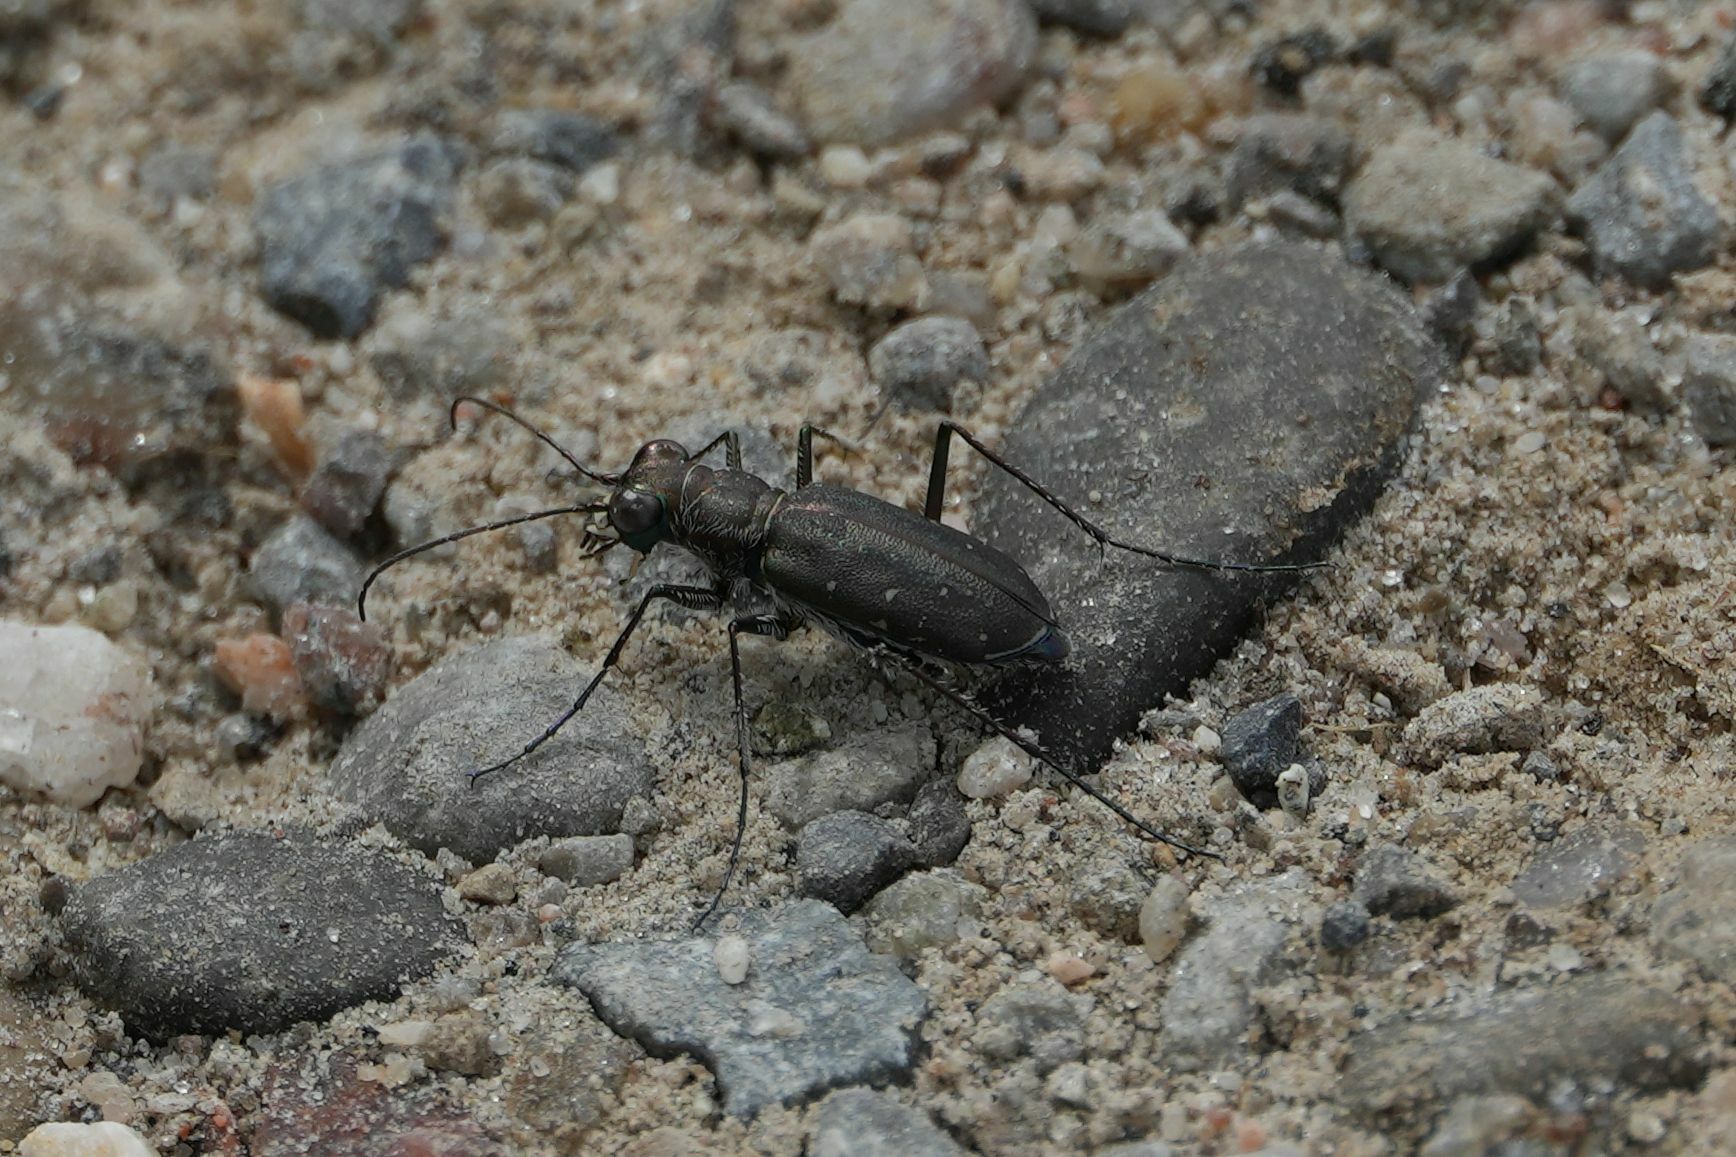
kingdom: Animalia
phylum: Arthropoda
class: Insecta
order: Coleoptera
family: Carabidae
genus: Cicindela
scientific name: Cicindela punctulata
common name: Punctured tiger beetle
